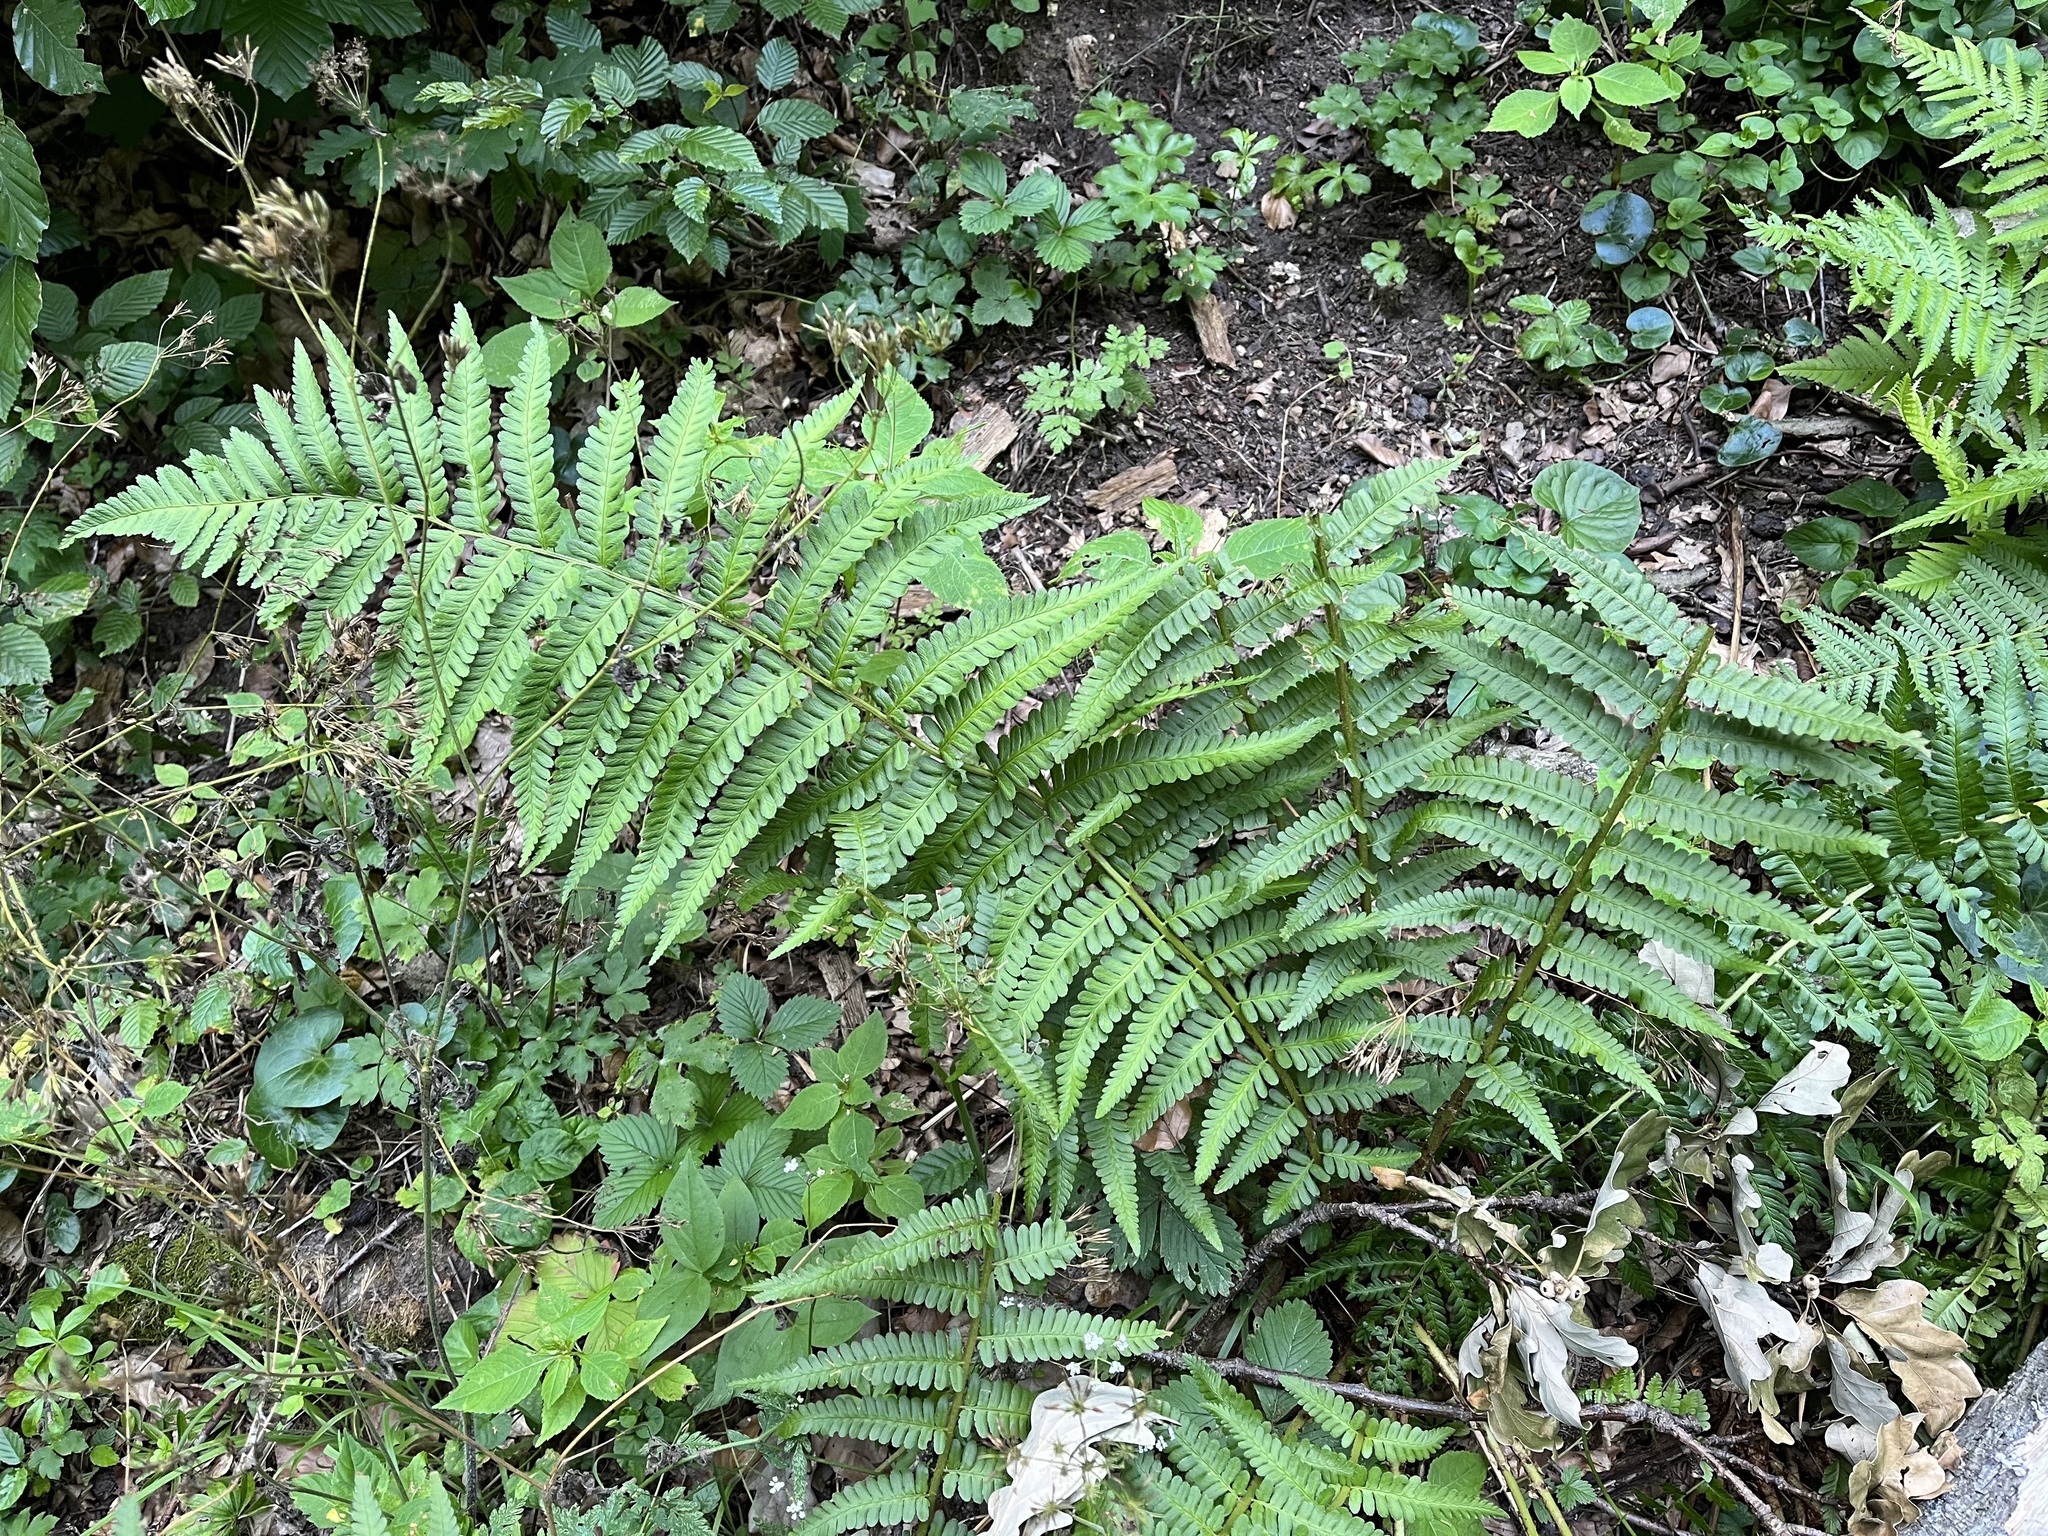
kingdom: Plantae
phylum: Tracheophyta
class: Polypodiopsida
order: Polypodiales
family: Dryopteridaceae
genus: Dryopteris
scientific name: Dryopteris filix-mas
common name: Male fern
